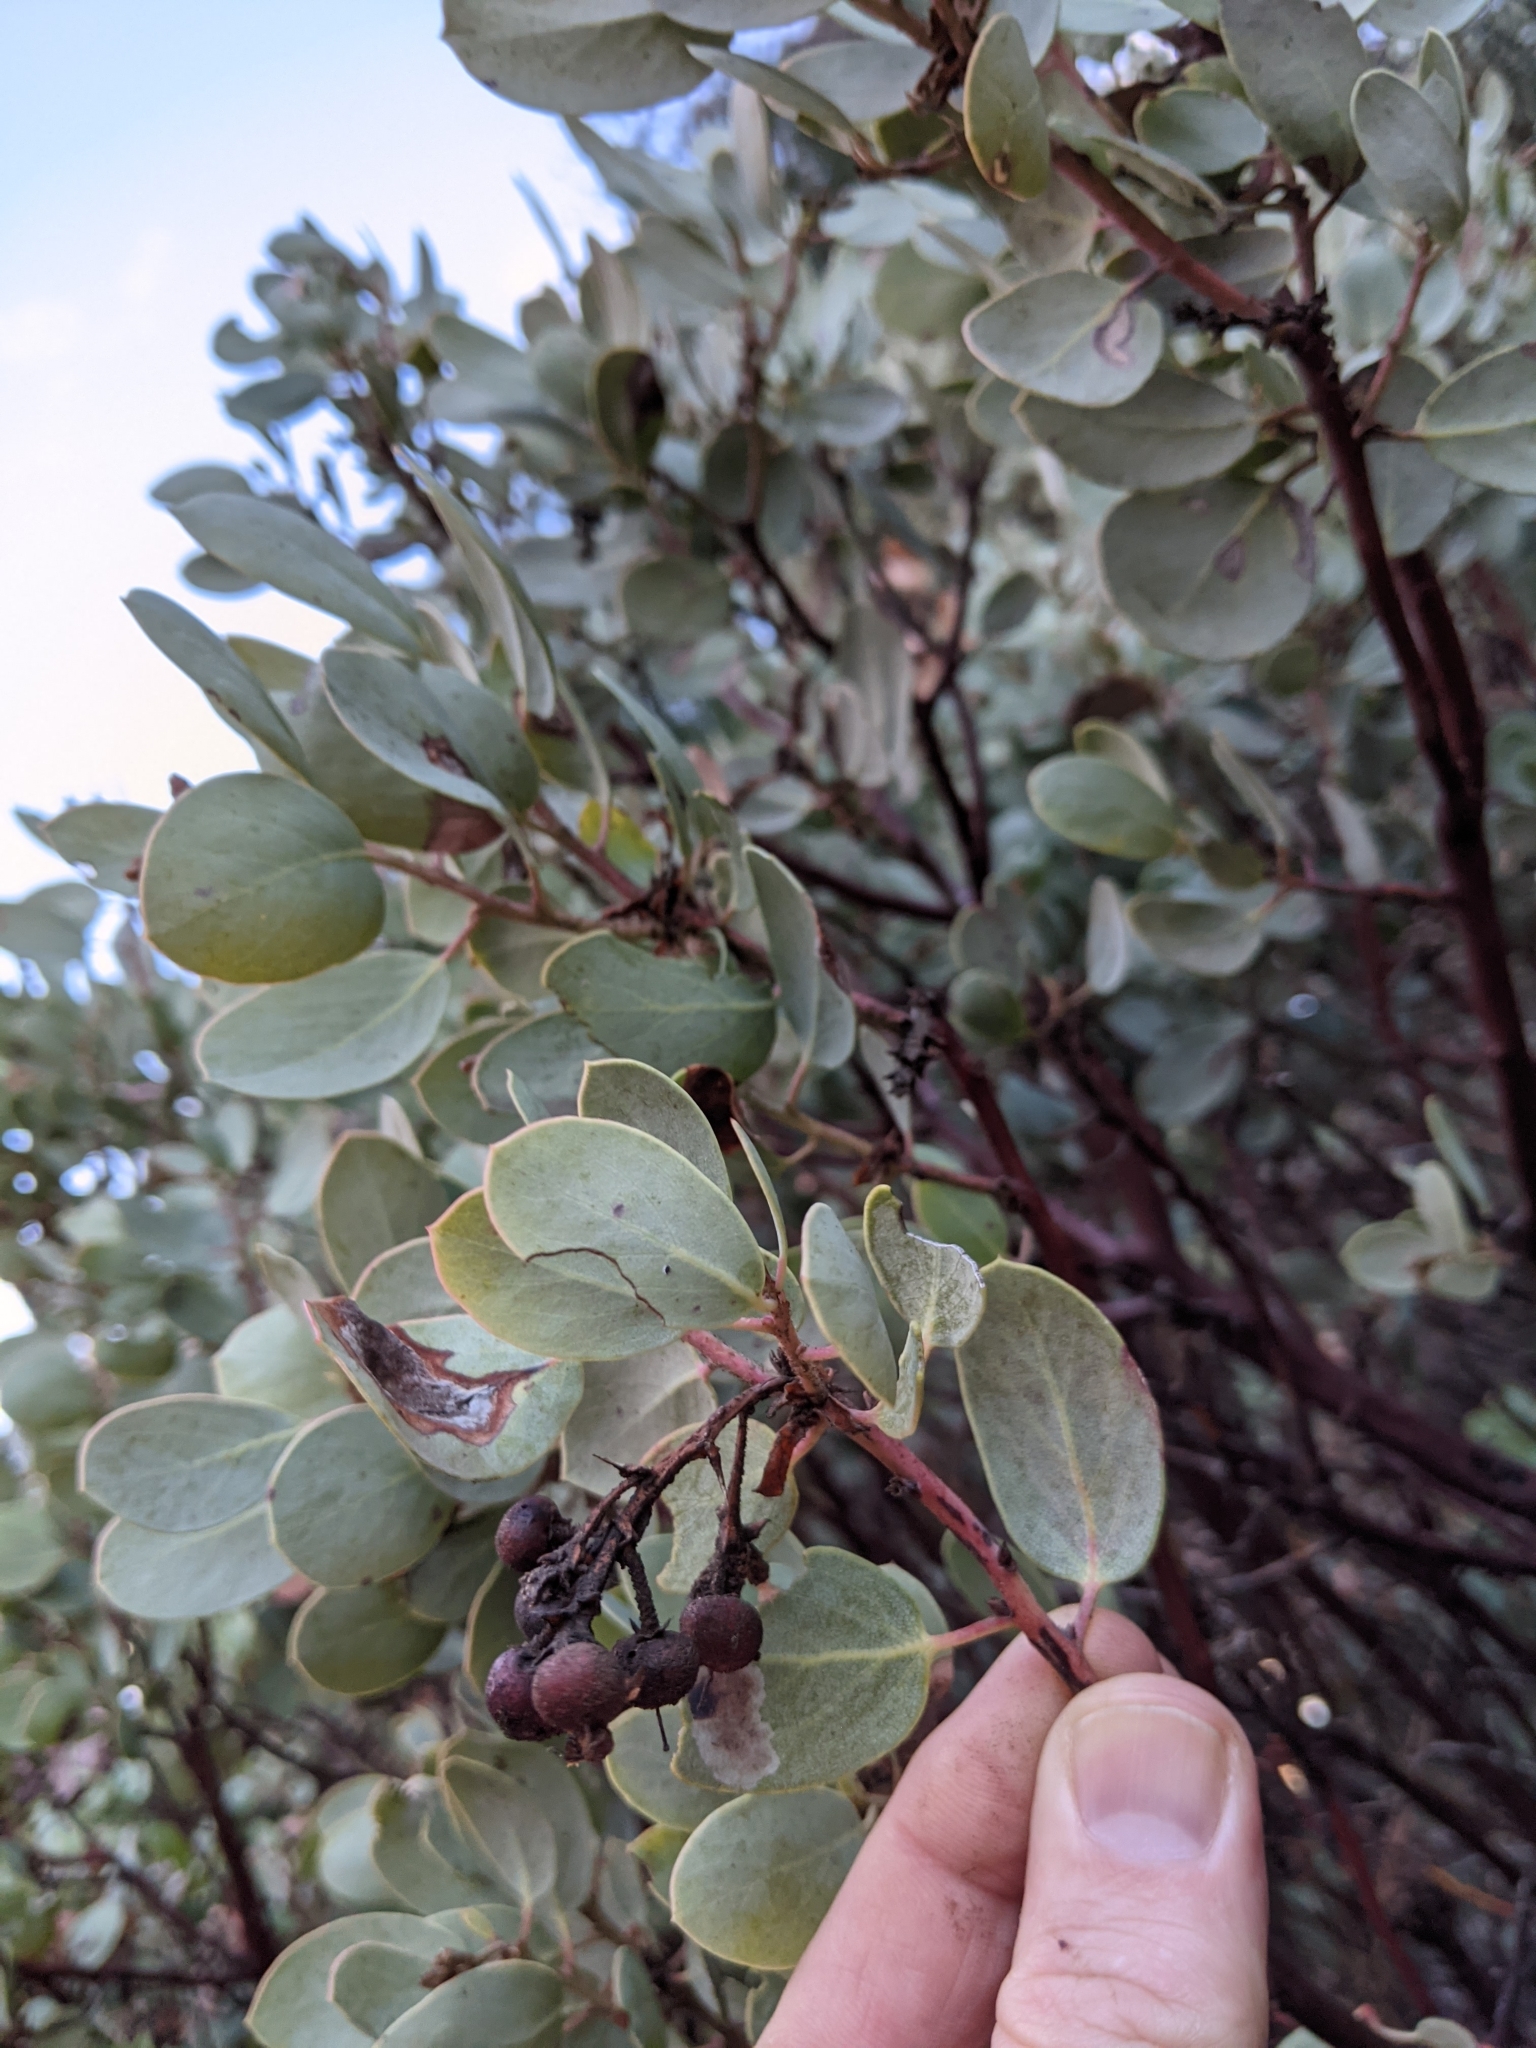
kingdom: Plantae
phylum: Tracheophyta
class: Magnoliopsida
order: Ericales
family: Ericaceae
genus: Arctostaphylos
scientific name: Arctostaphylos viscida
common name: White-leaf manzanita
